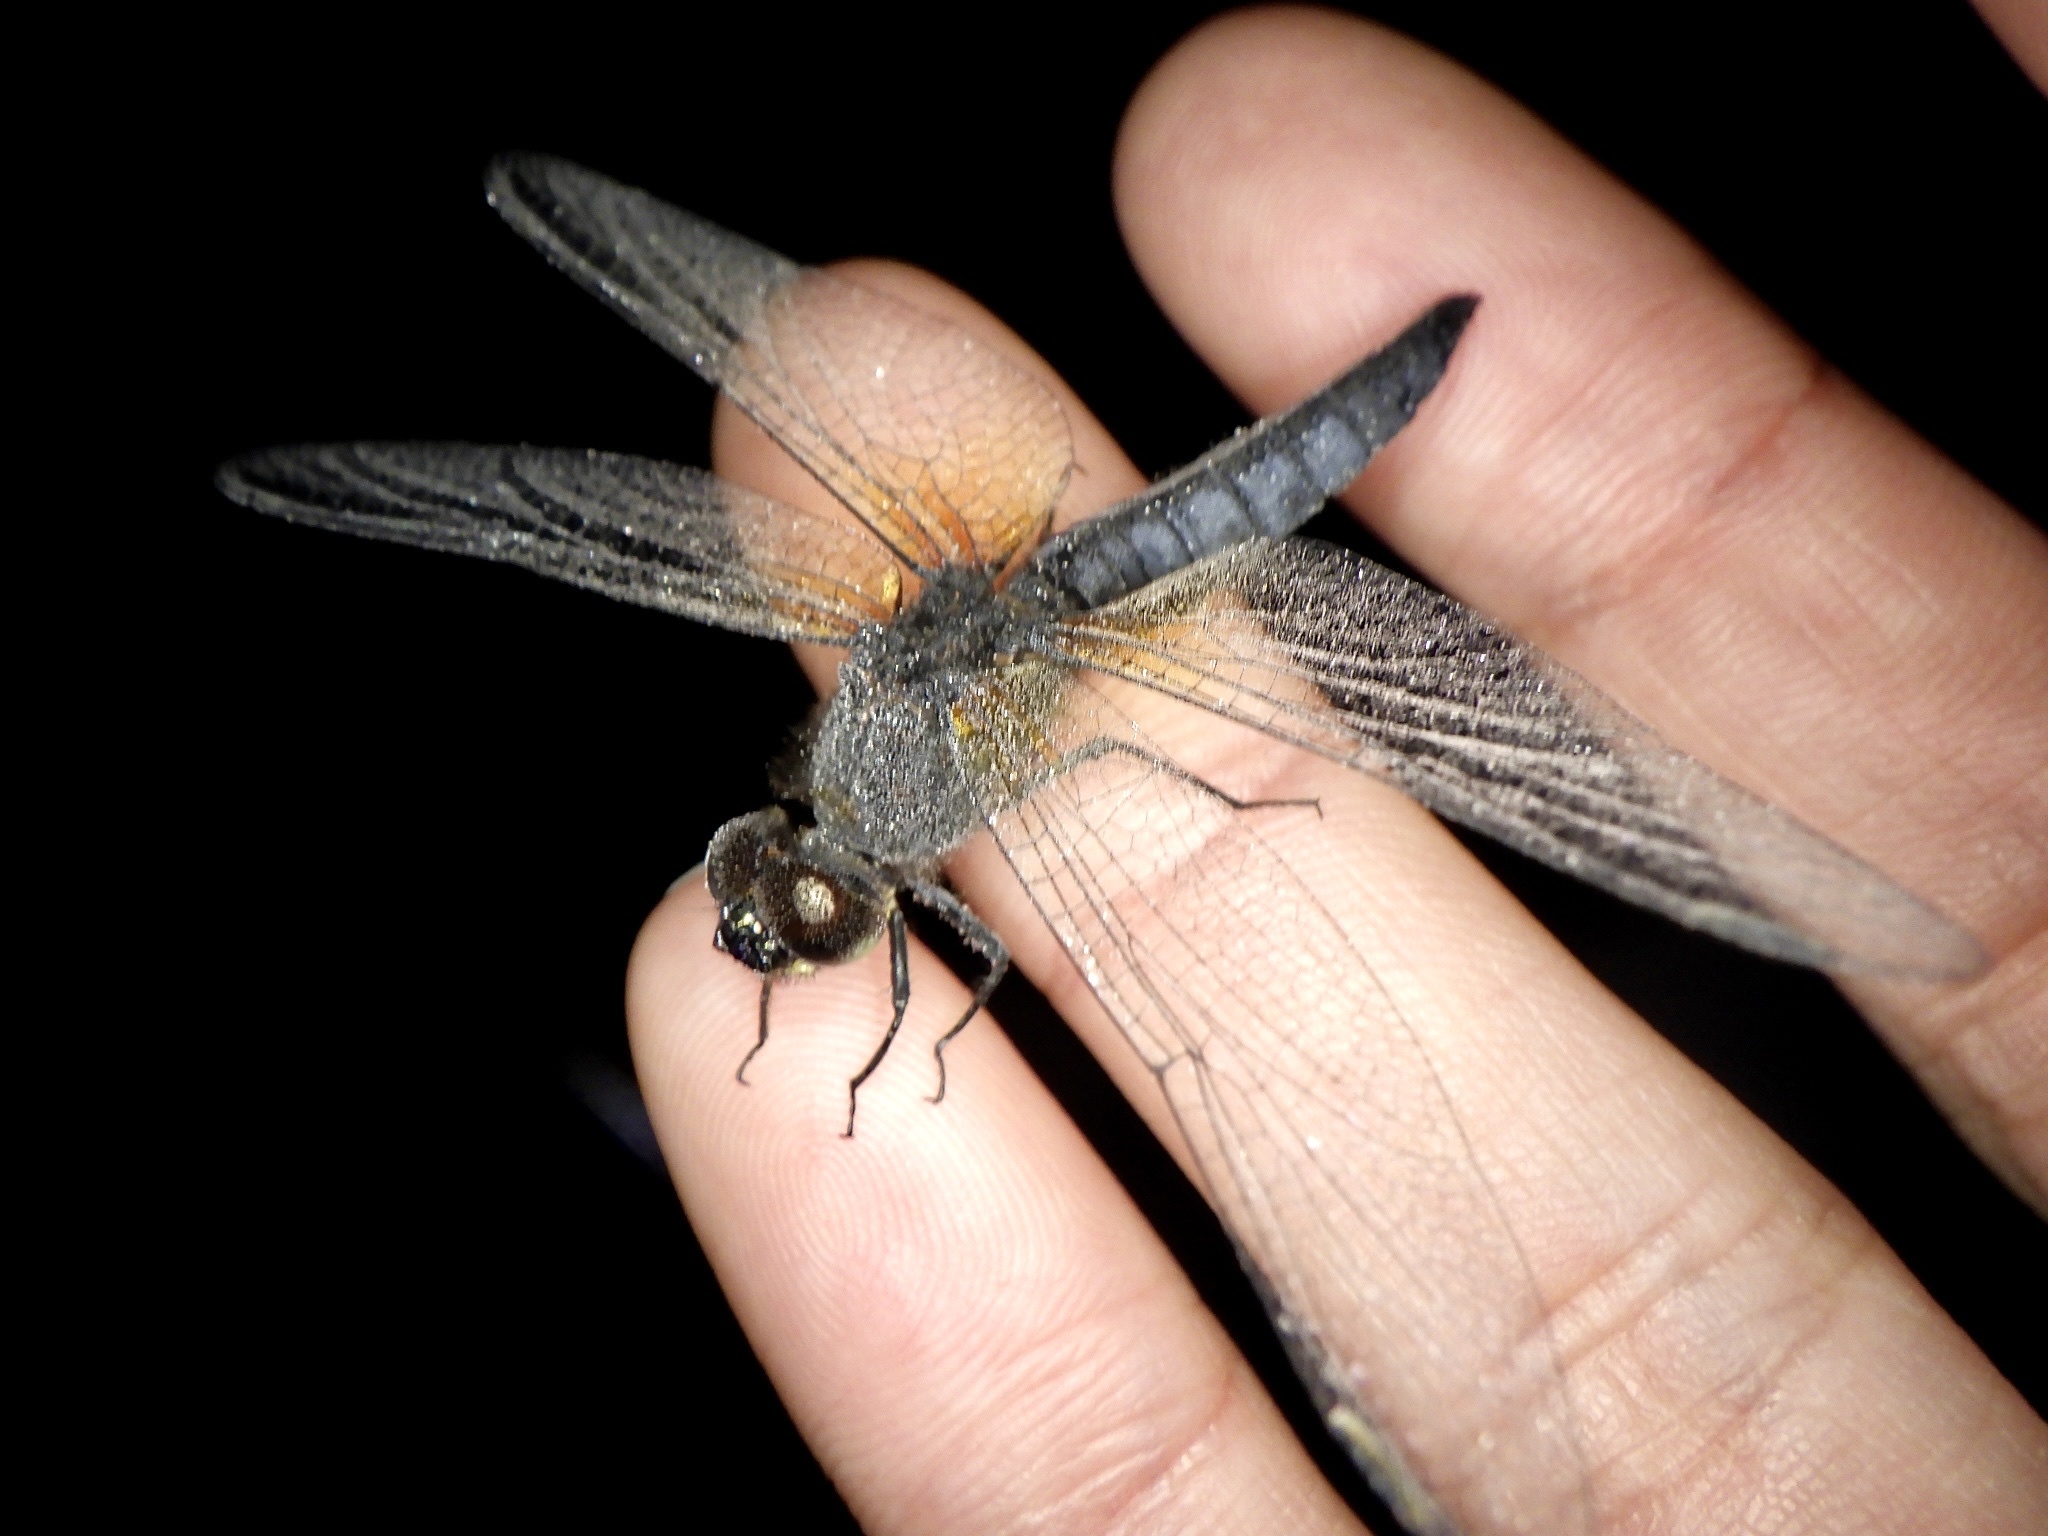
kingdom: Animalia
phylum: Arthropoda
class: Insecta
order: Odonata
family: Libellulidae
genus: Lyriothemis
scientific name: Lyriothemis pachygastra
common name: Wide-bellied skimmer
